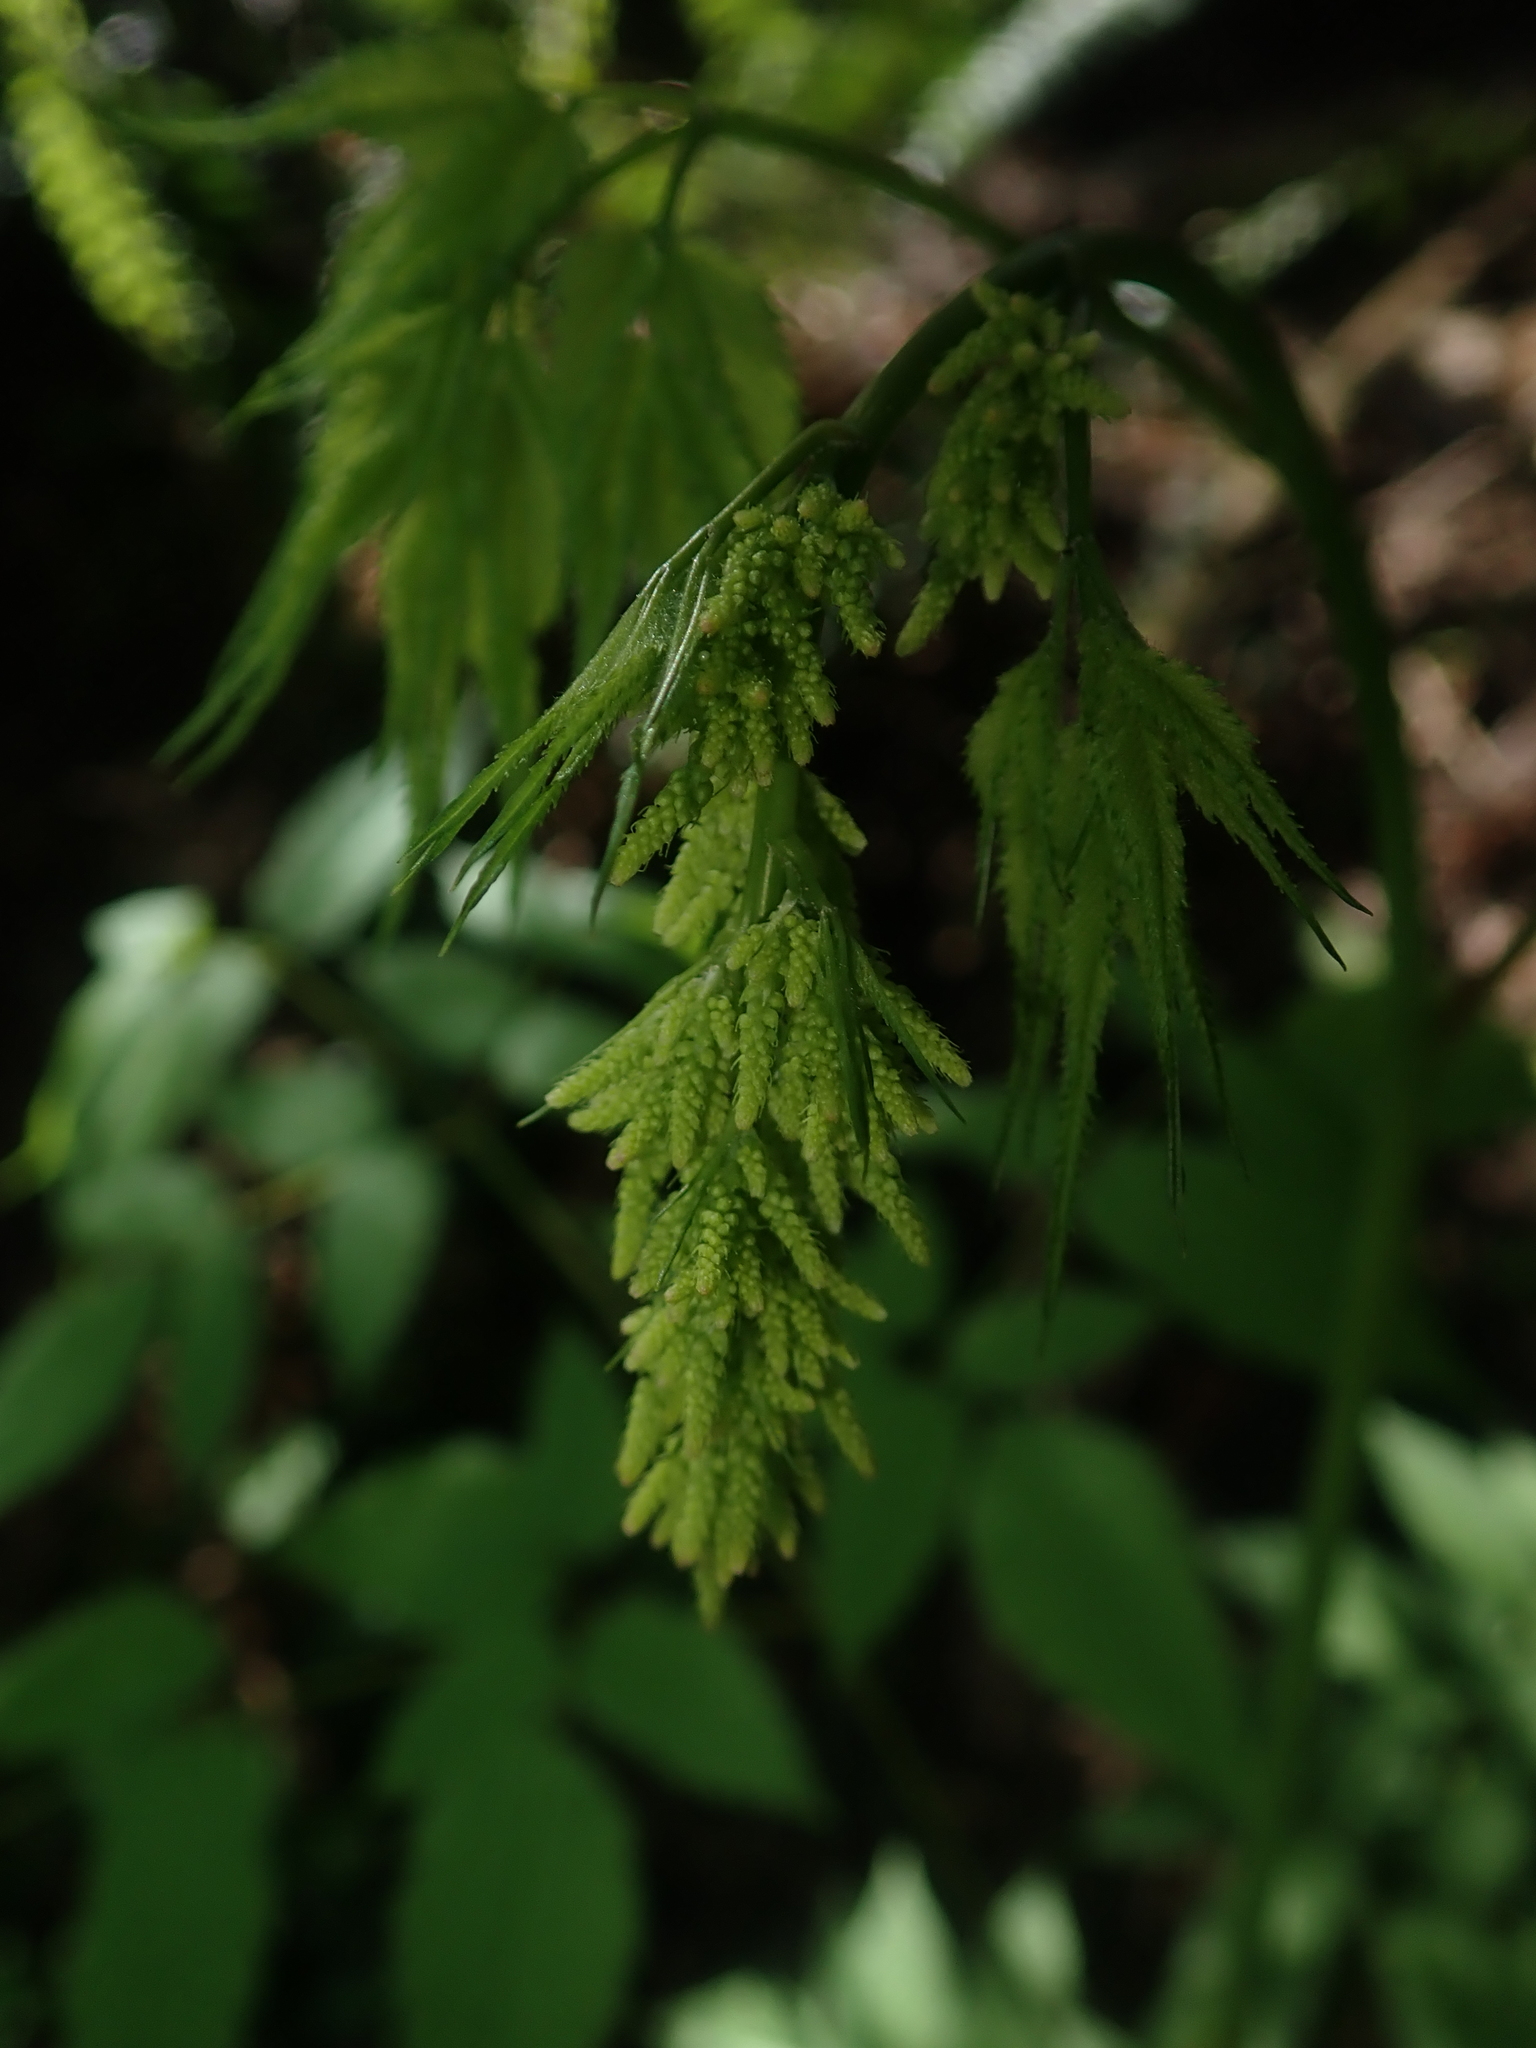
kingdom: Plantae
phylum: Tracheophyta
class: Magnoliopsida
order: Rosales
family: Rosaceae
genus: Aruncus
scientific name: Aruncus dioicus
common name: Buck's-beard
